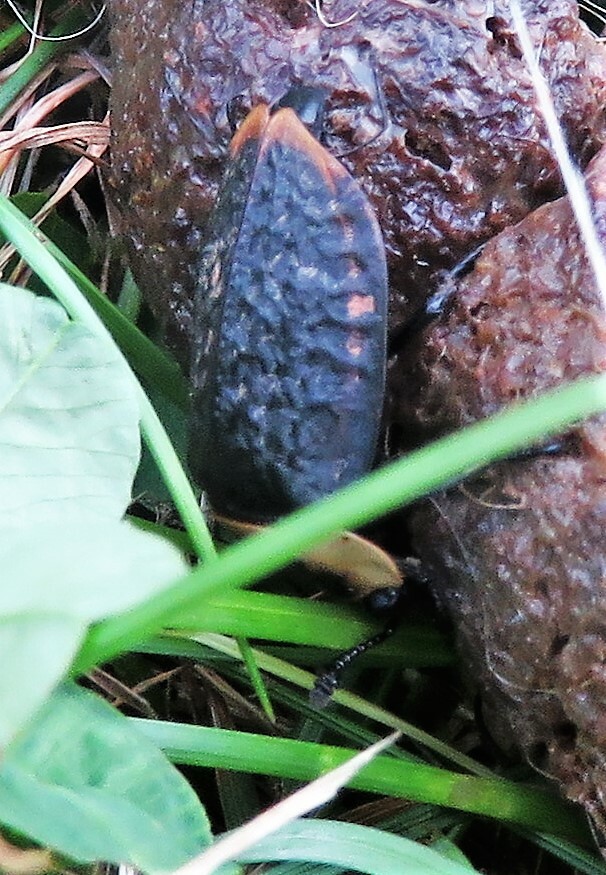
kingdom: Animalia
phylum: Arthropoda
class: Insecta
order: Coleoptera
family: Staphylinidae
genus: Necrophila
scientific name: Necrophila americana
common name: American carrion beetle
